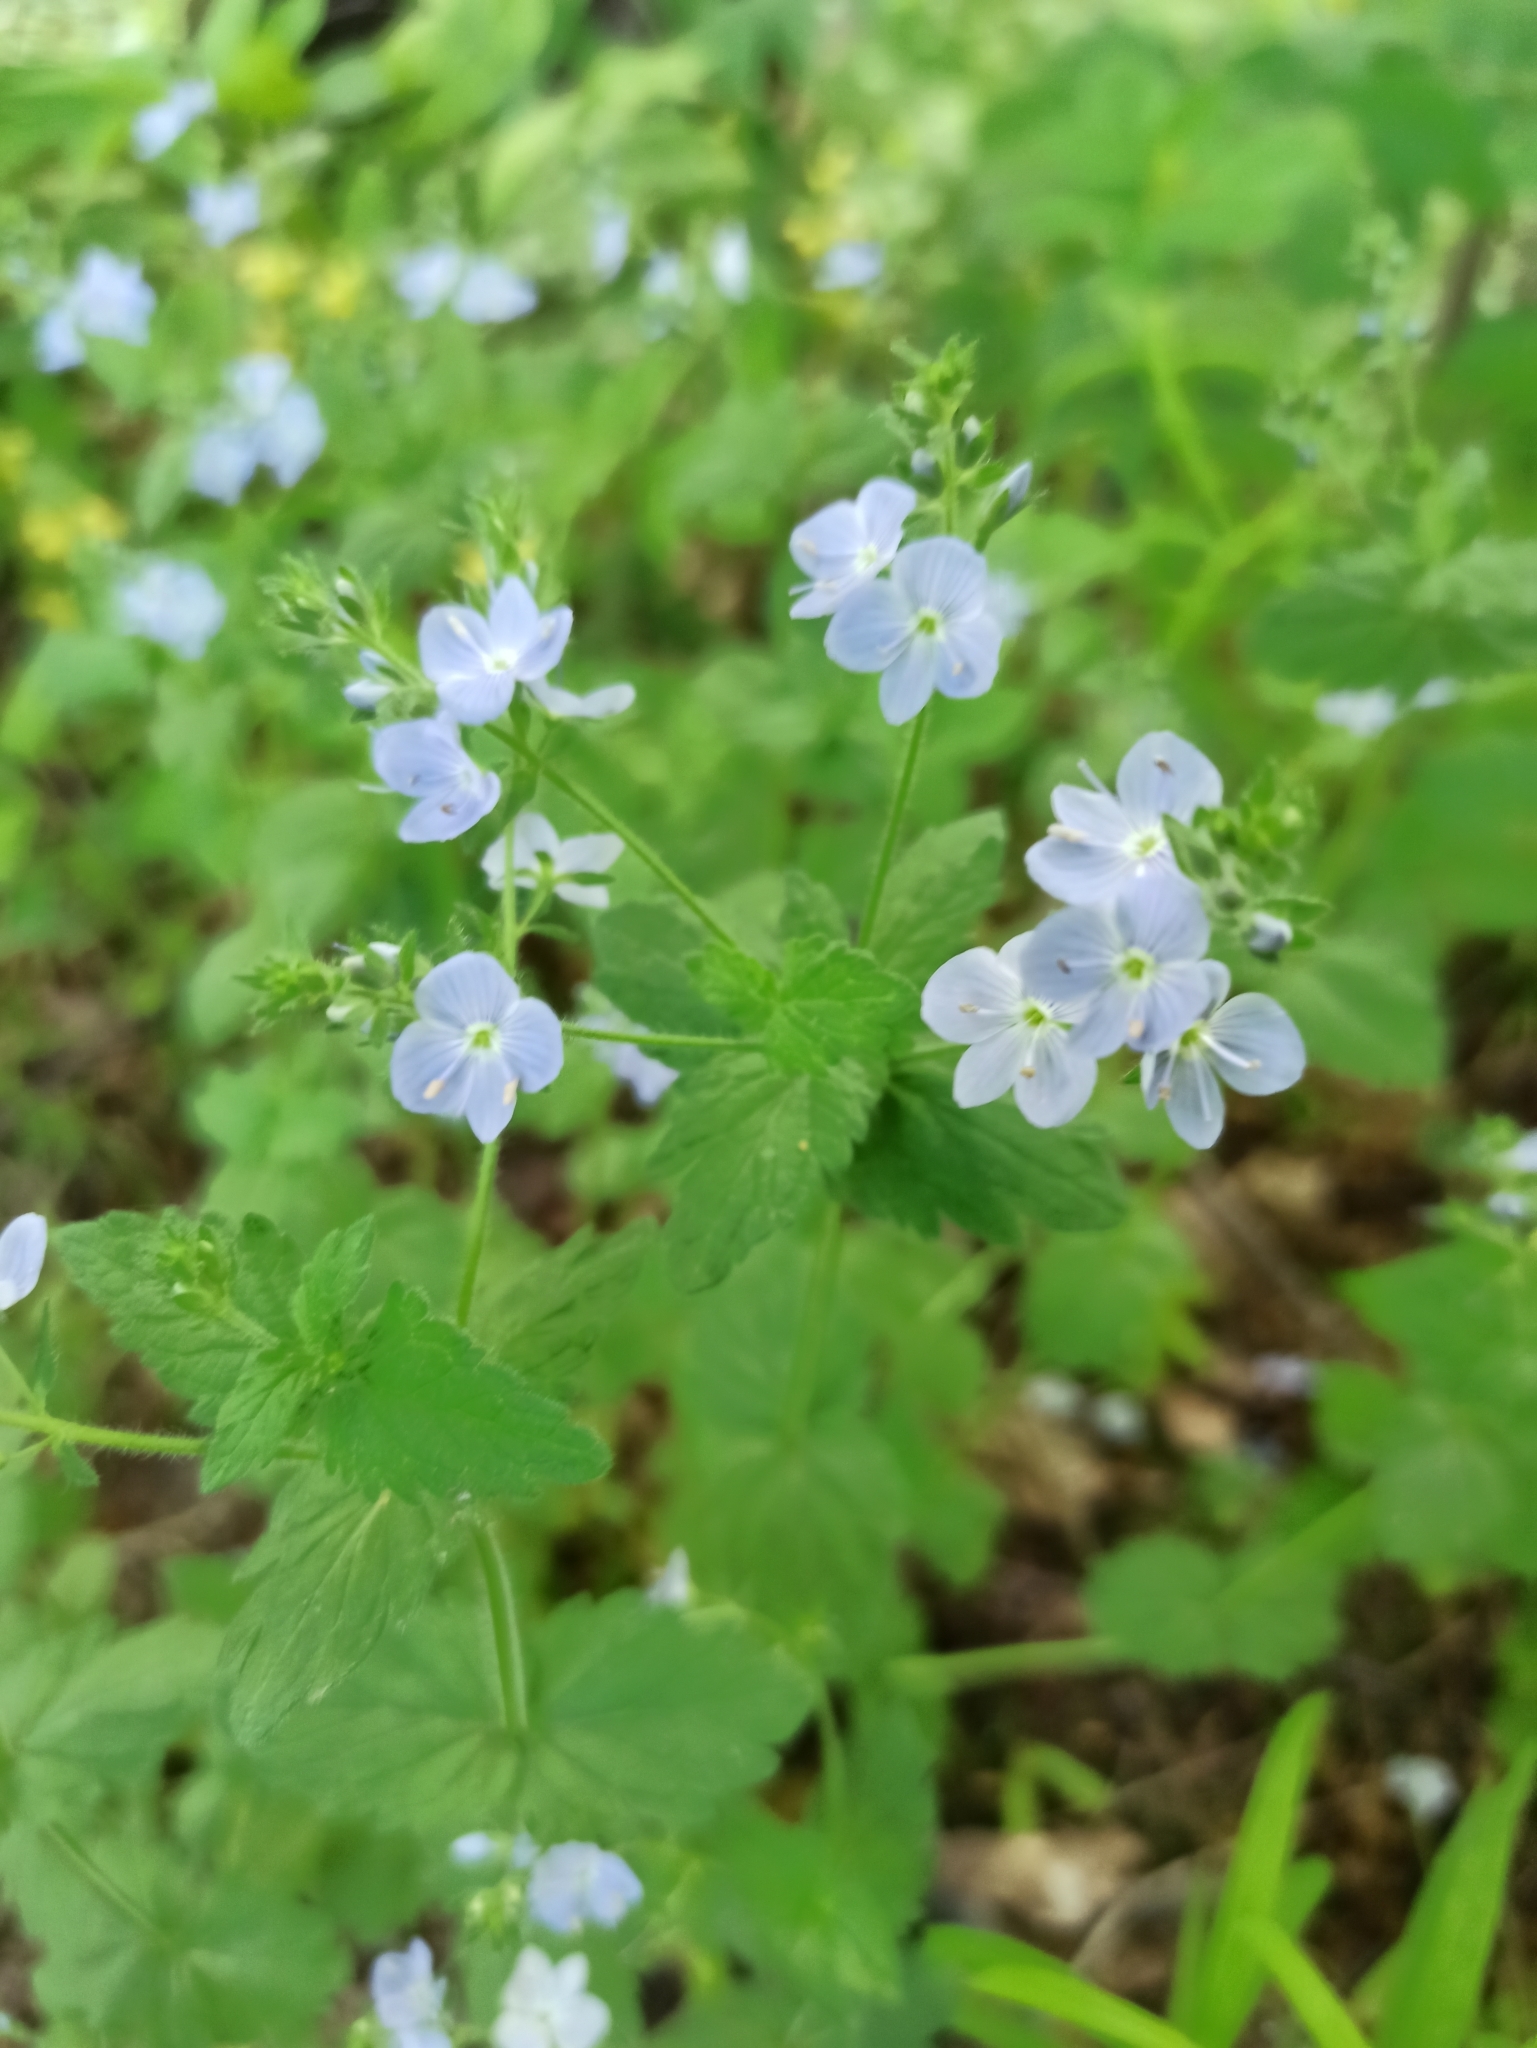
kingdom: Plantae
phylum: Tracheophyta
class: Magnoliopsida
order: Lamiales
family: Plantaginaceae
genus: Veronica
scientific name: Veronica chamaedrys
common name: Germander speedwell
